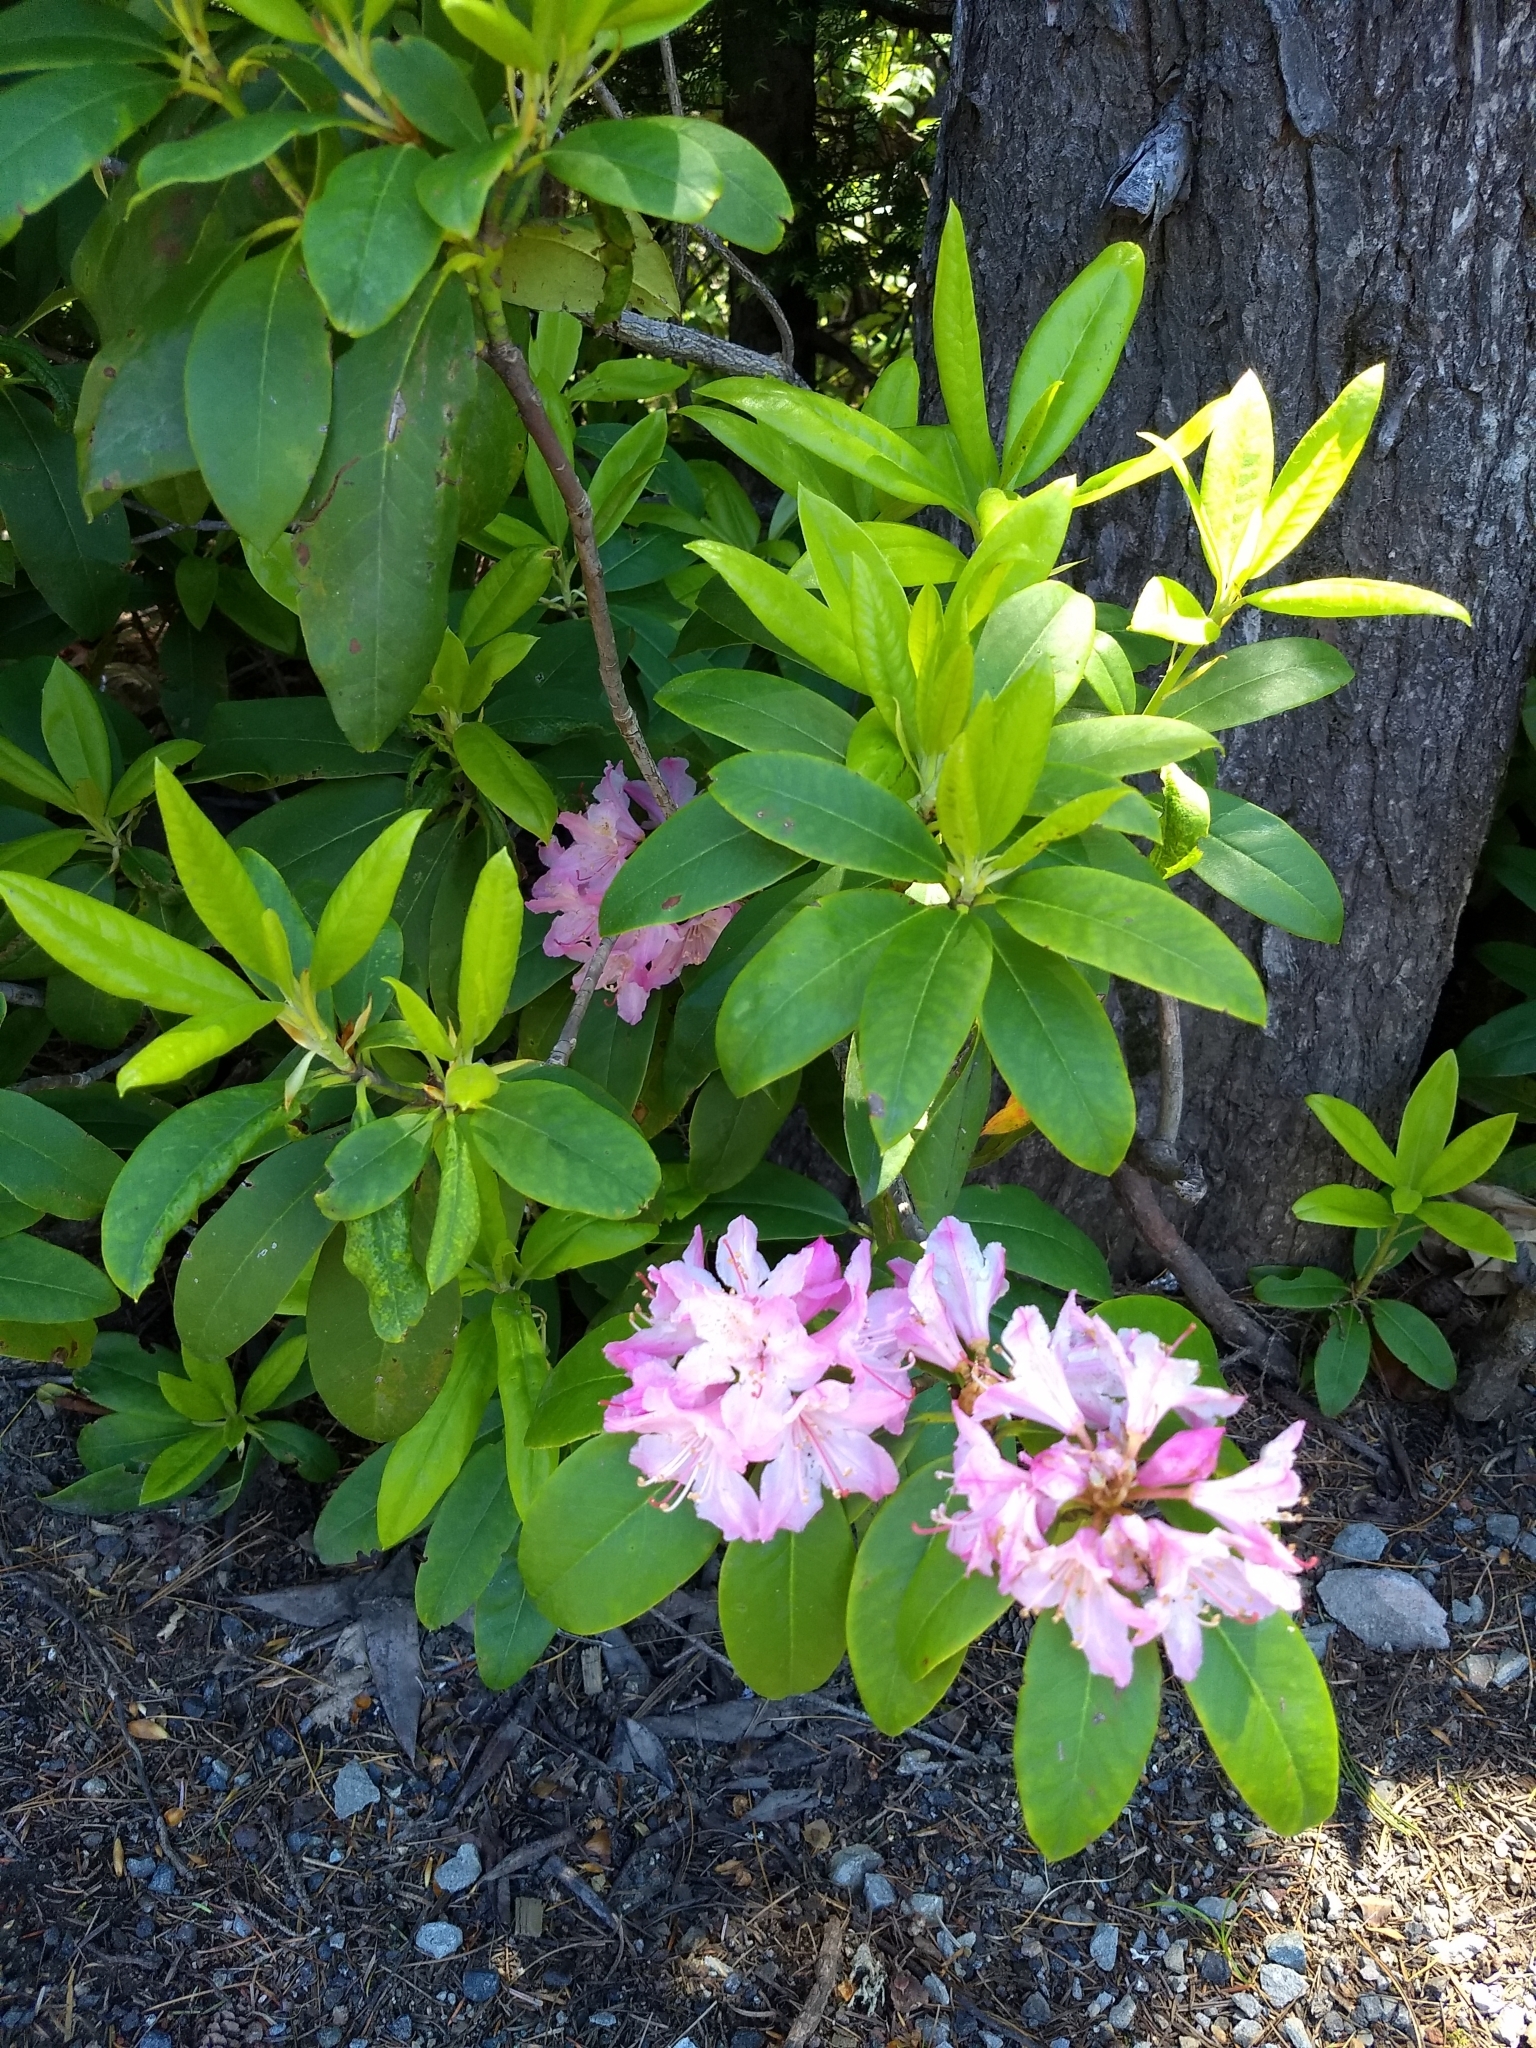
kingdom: Plantae
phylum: Tracheophyta
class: Magnoliopsida
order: Ericales
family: Ericaceae
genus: Rhododendron
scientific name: Rhododendron macrophyllum
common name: California rose bay
